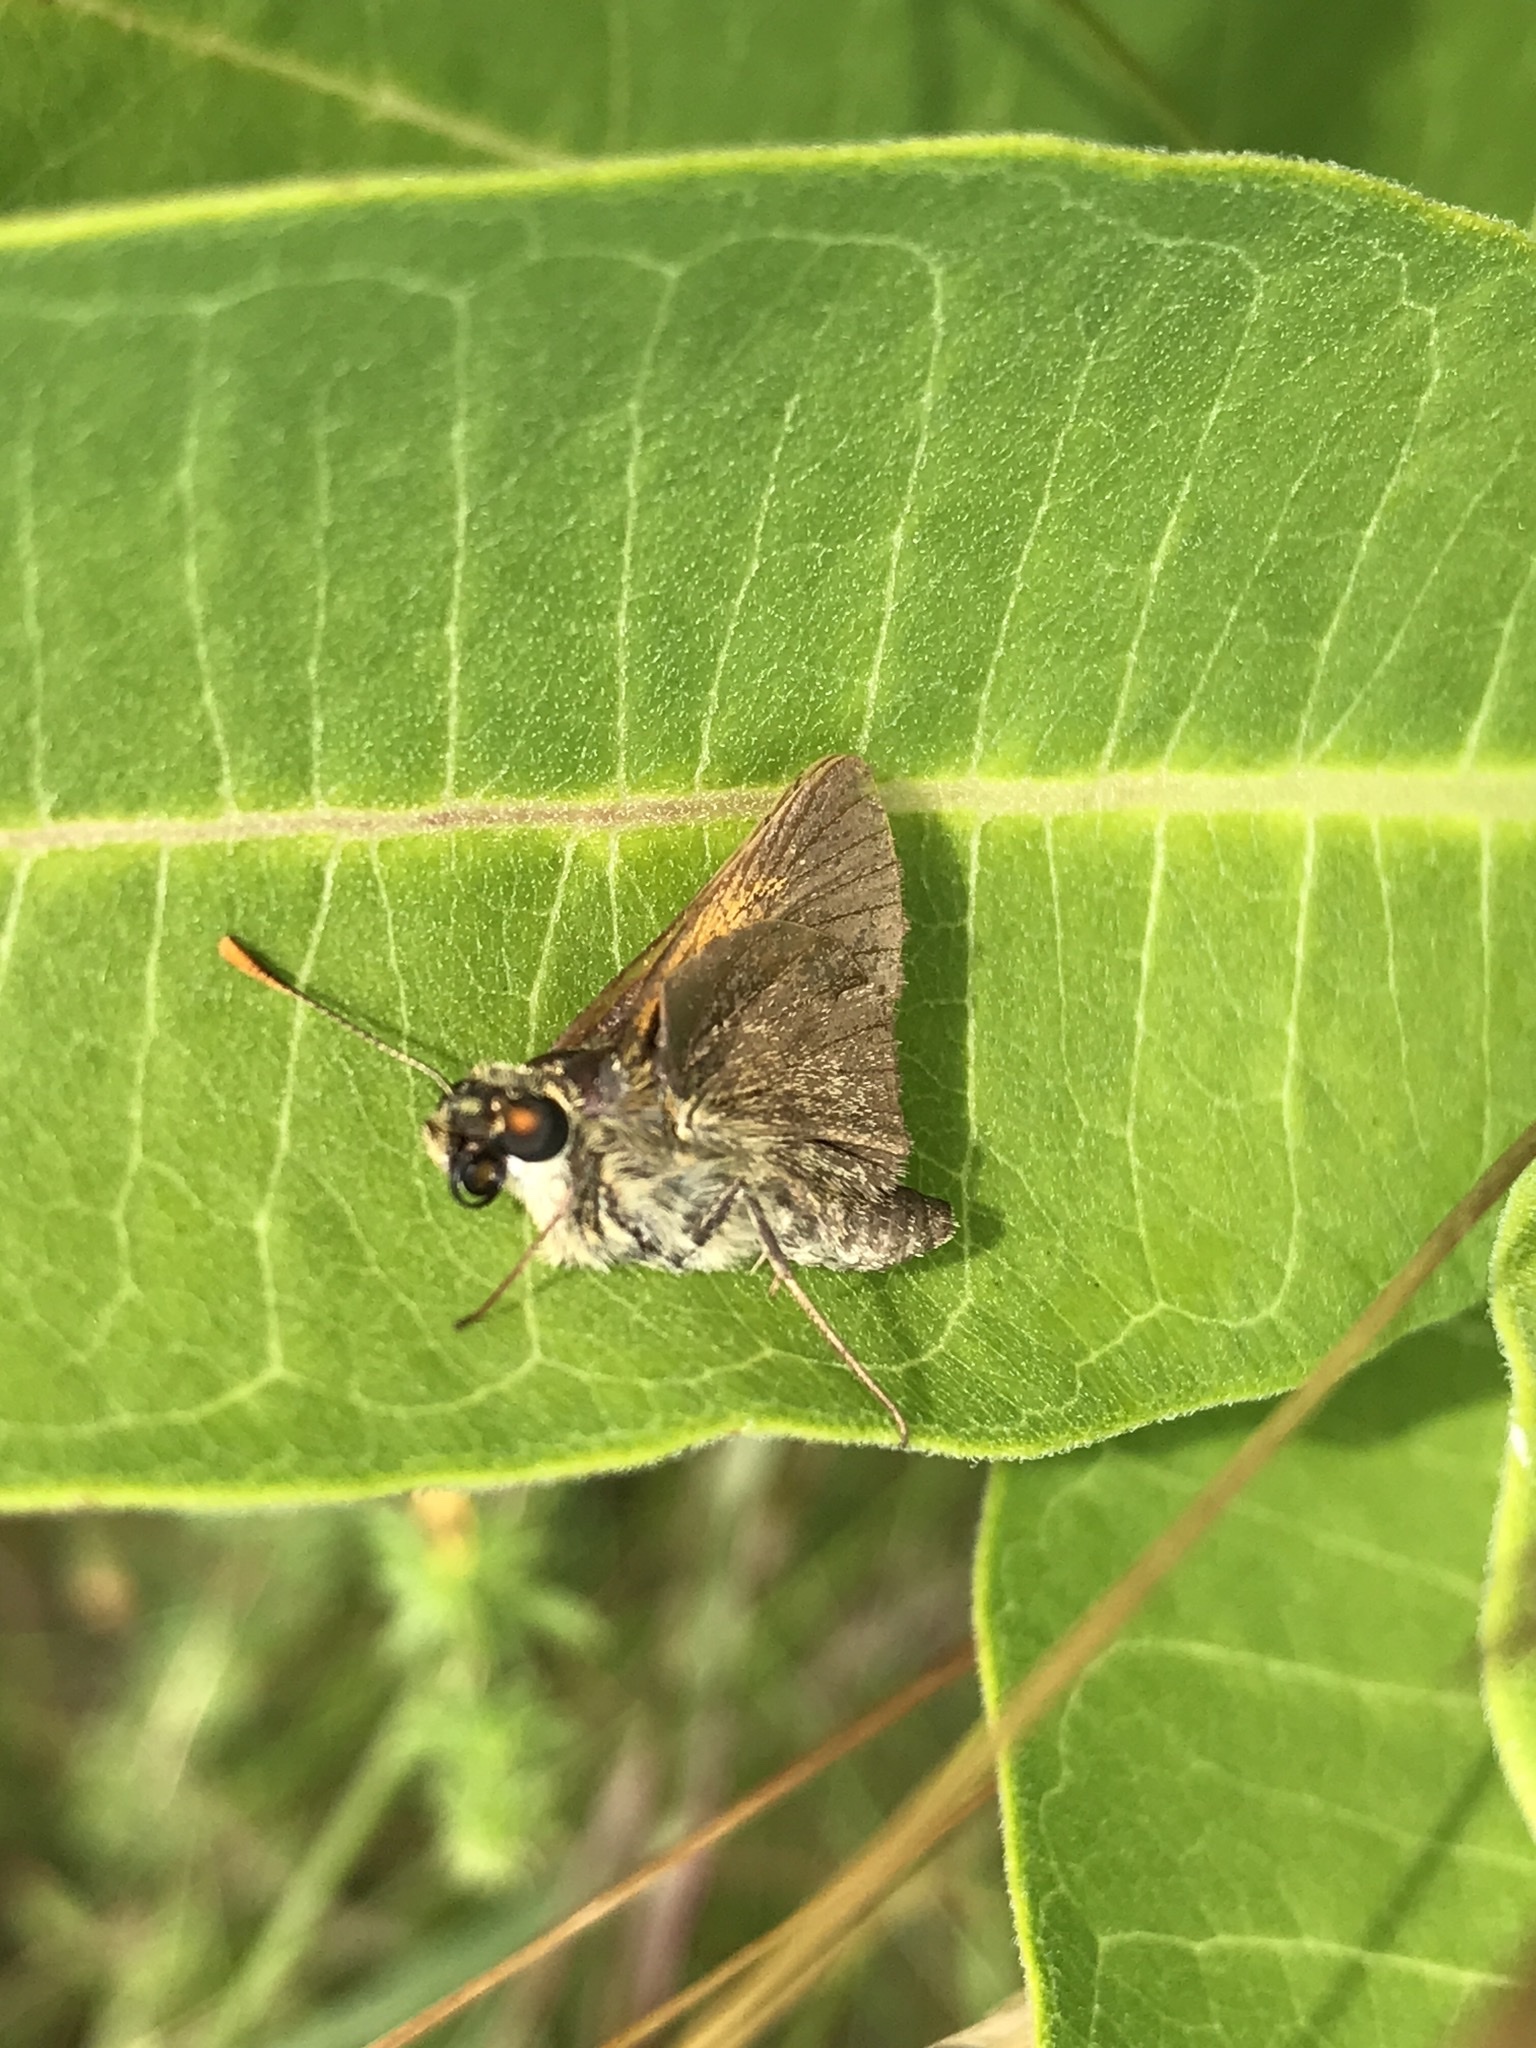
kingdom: Animalia
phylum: Arthropoda
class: Insecta
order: Lepidoptera
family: Hesperiidae
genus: Polites
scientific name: Polites themistocles
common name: Tawny-edged skipper
